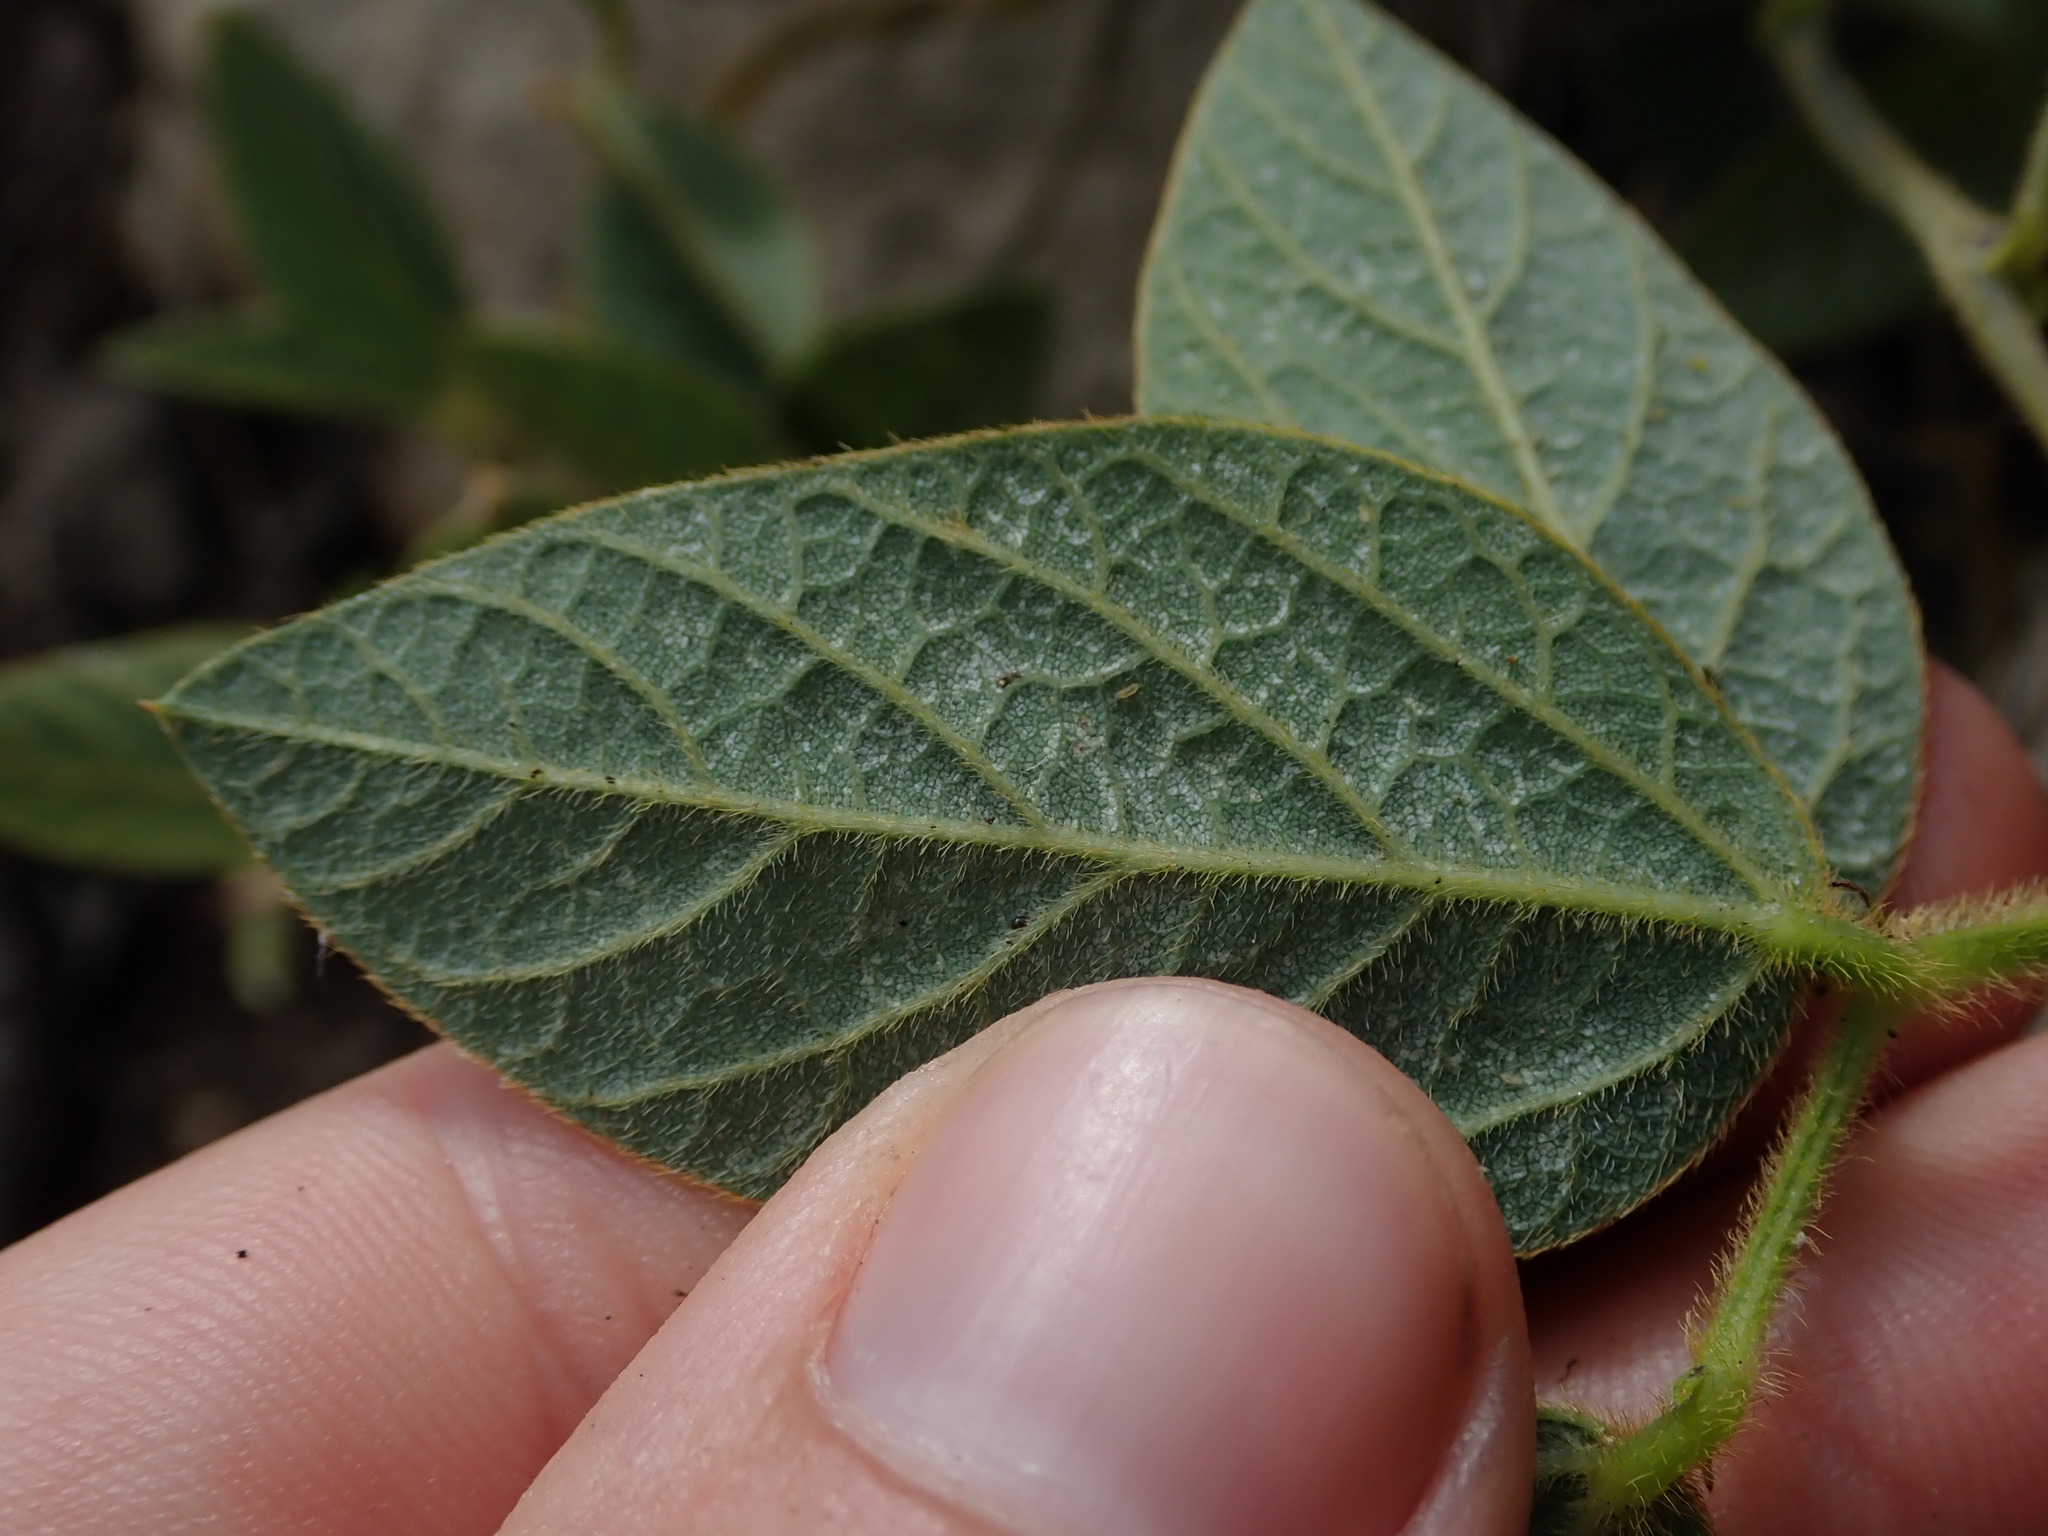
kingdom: Plantae
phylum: Tracheophyta
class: Magnoliopsida
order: Fabales
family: Fabaceae
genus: Cologania
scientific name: Cologania broussonetii
